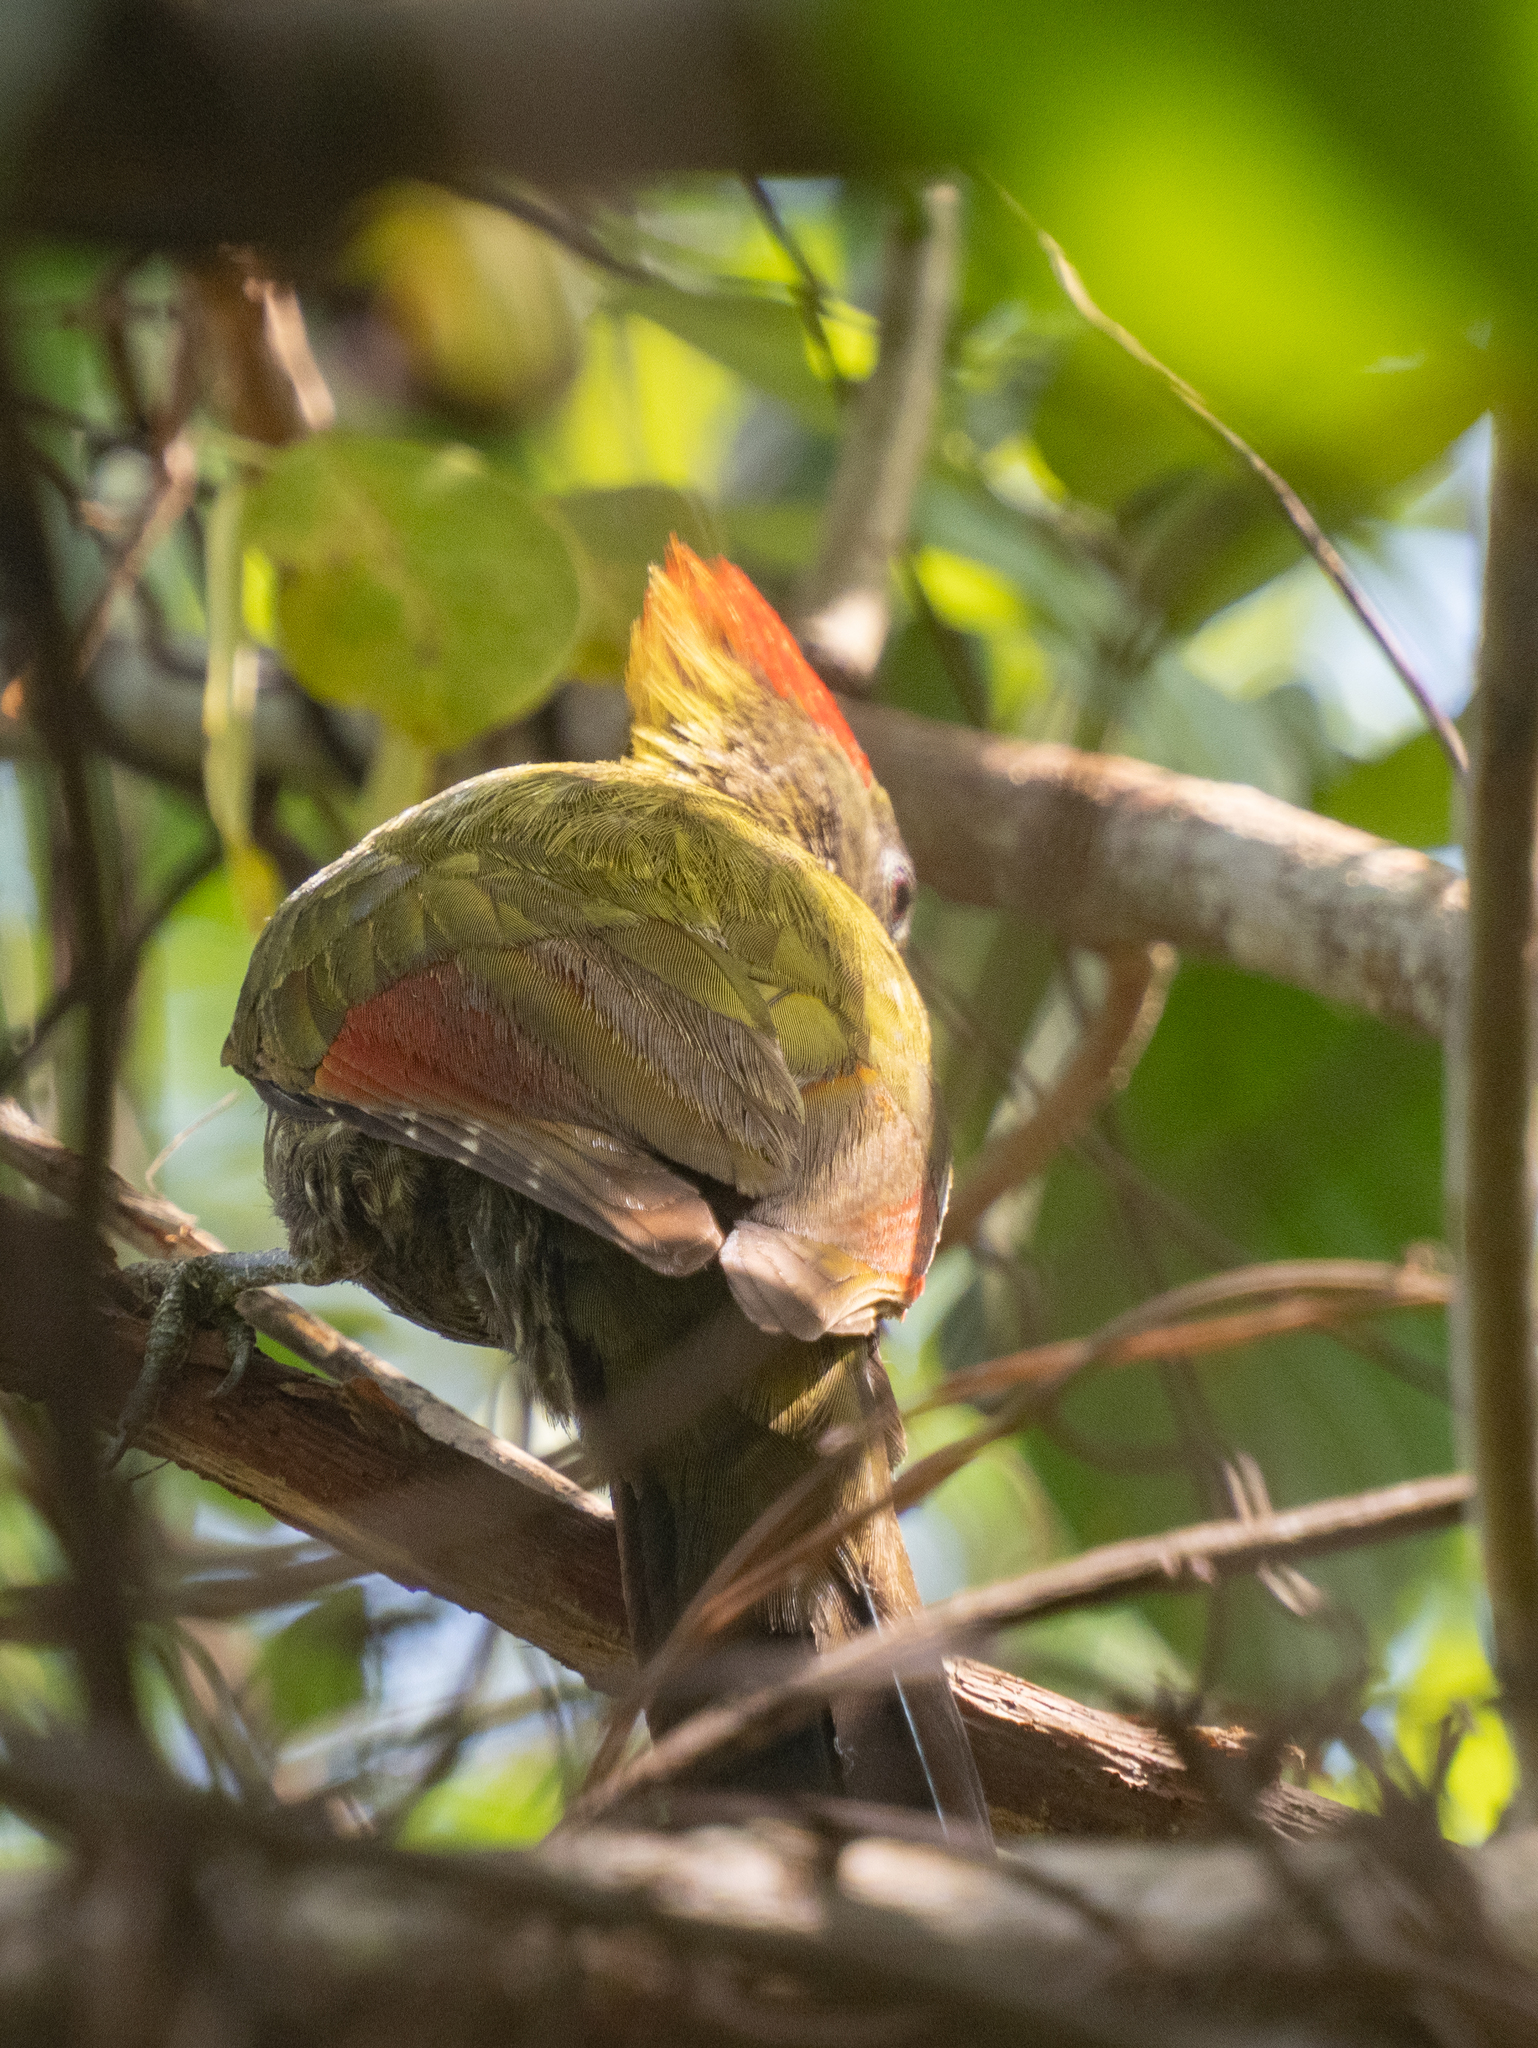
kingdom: Animalia
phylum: Chordata
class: Aves
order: Piciformes
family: Picidae
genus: Picus
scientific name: Picus chlorolophus
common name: Lesser yellownape
